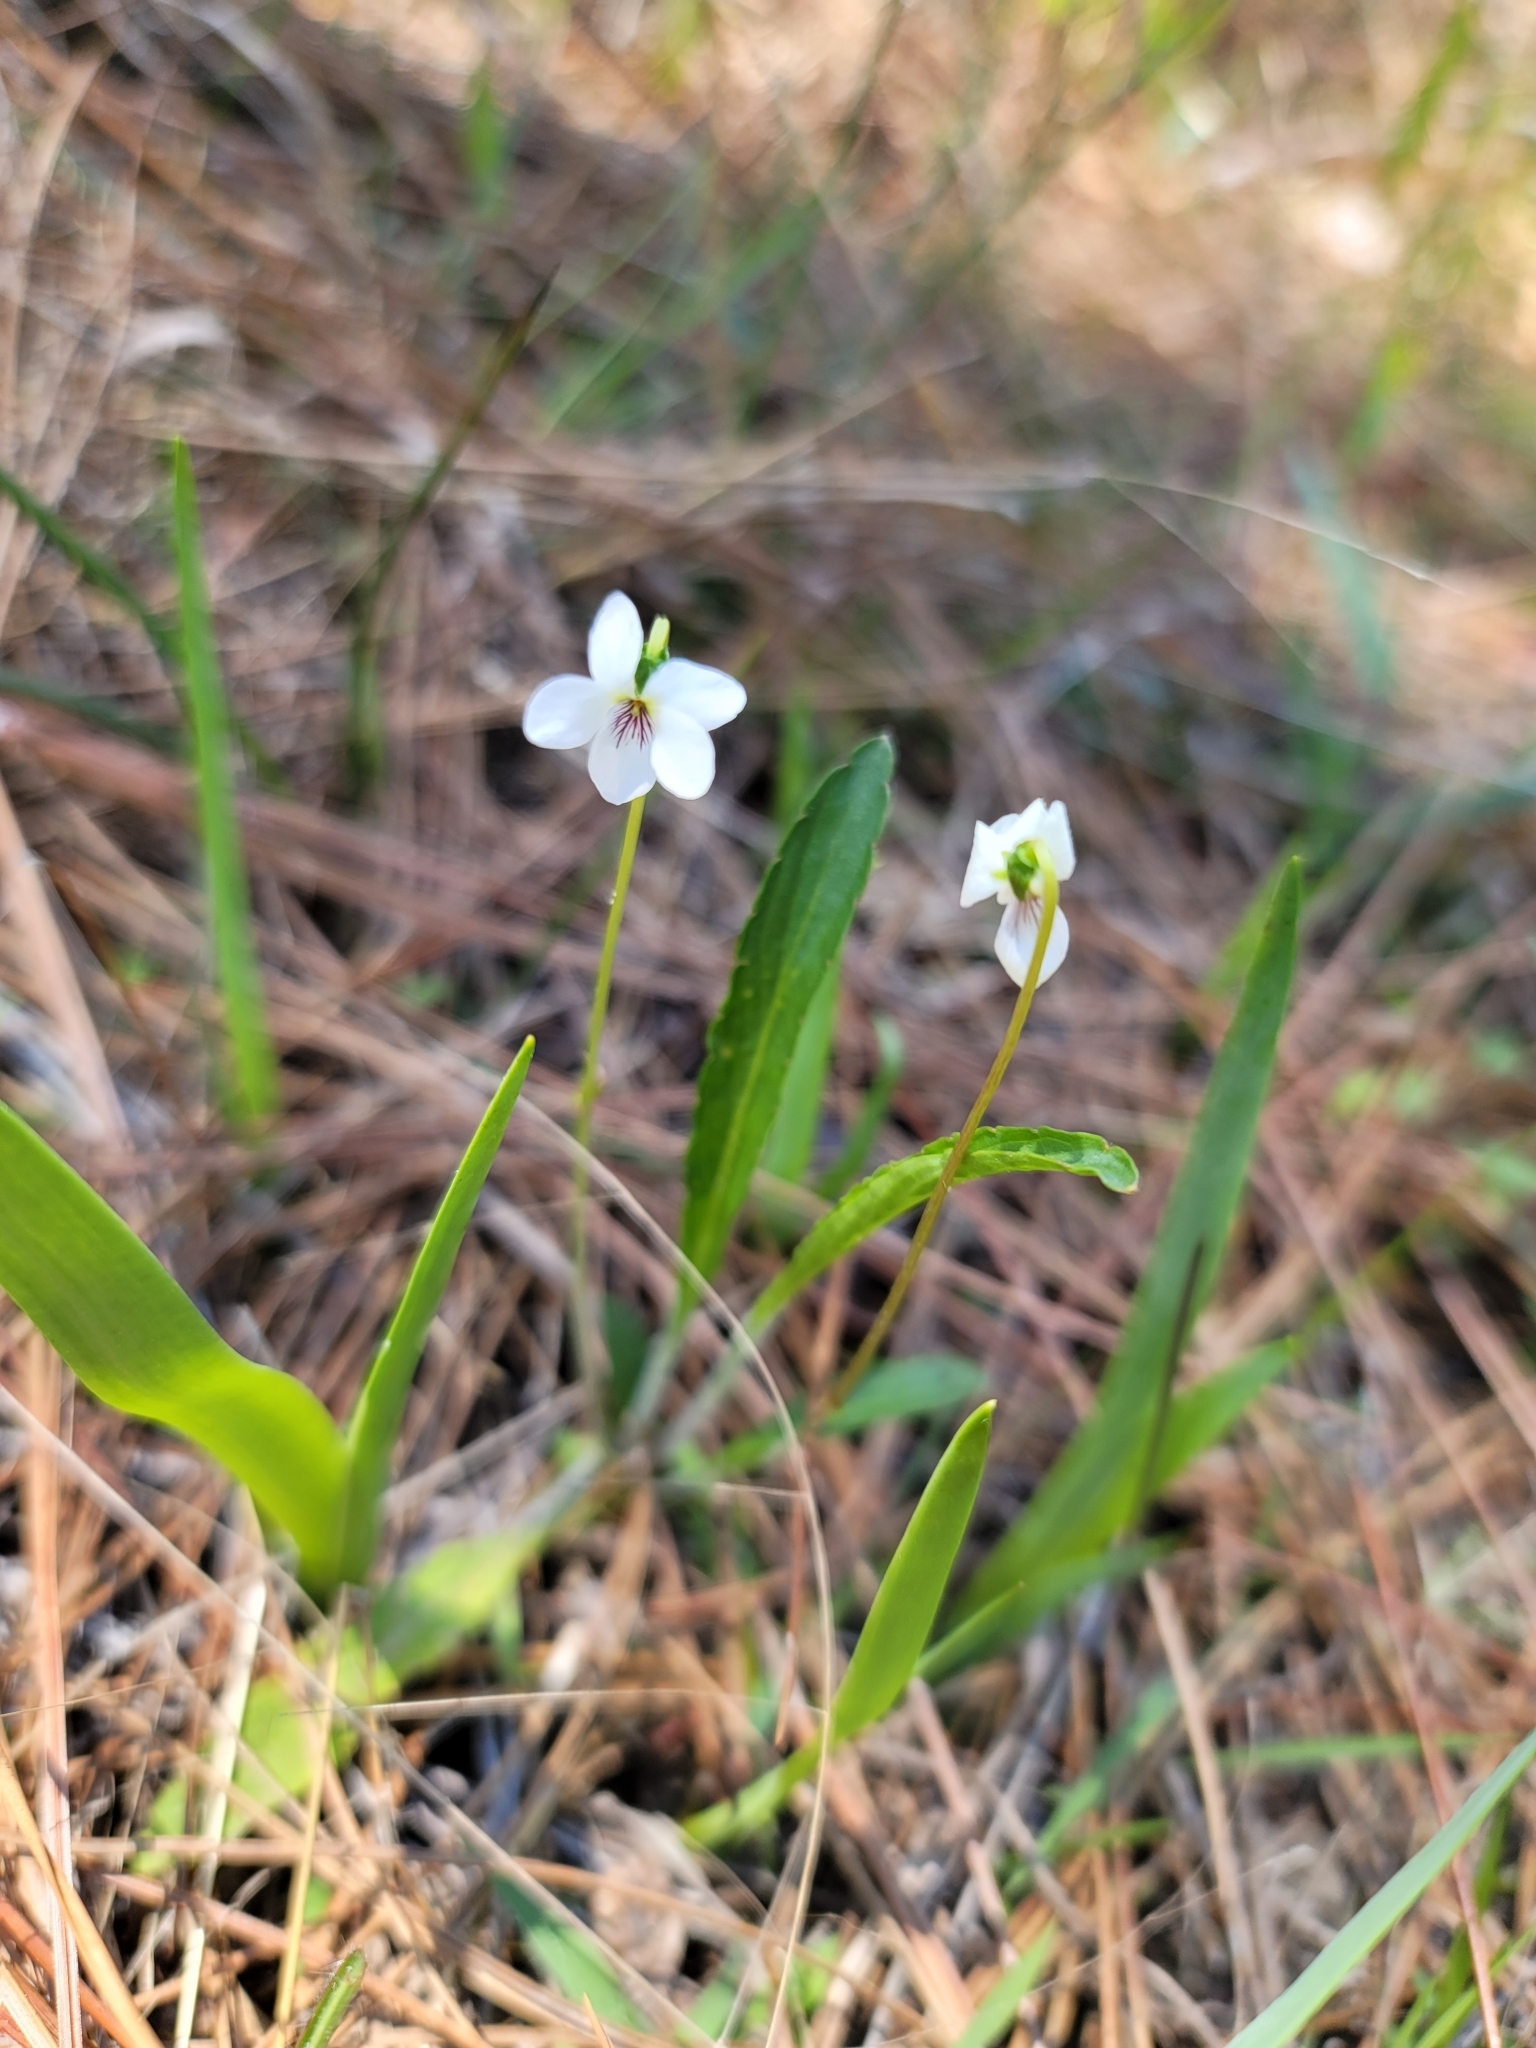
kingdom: Plantae
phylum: Tracheophyta
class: Magnoliopsida
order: Malpighiales
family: Violaceae
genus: Viola
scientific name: Viola lanceolata
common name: Bog white violet
